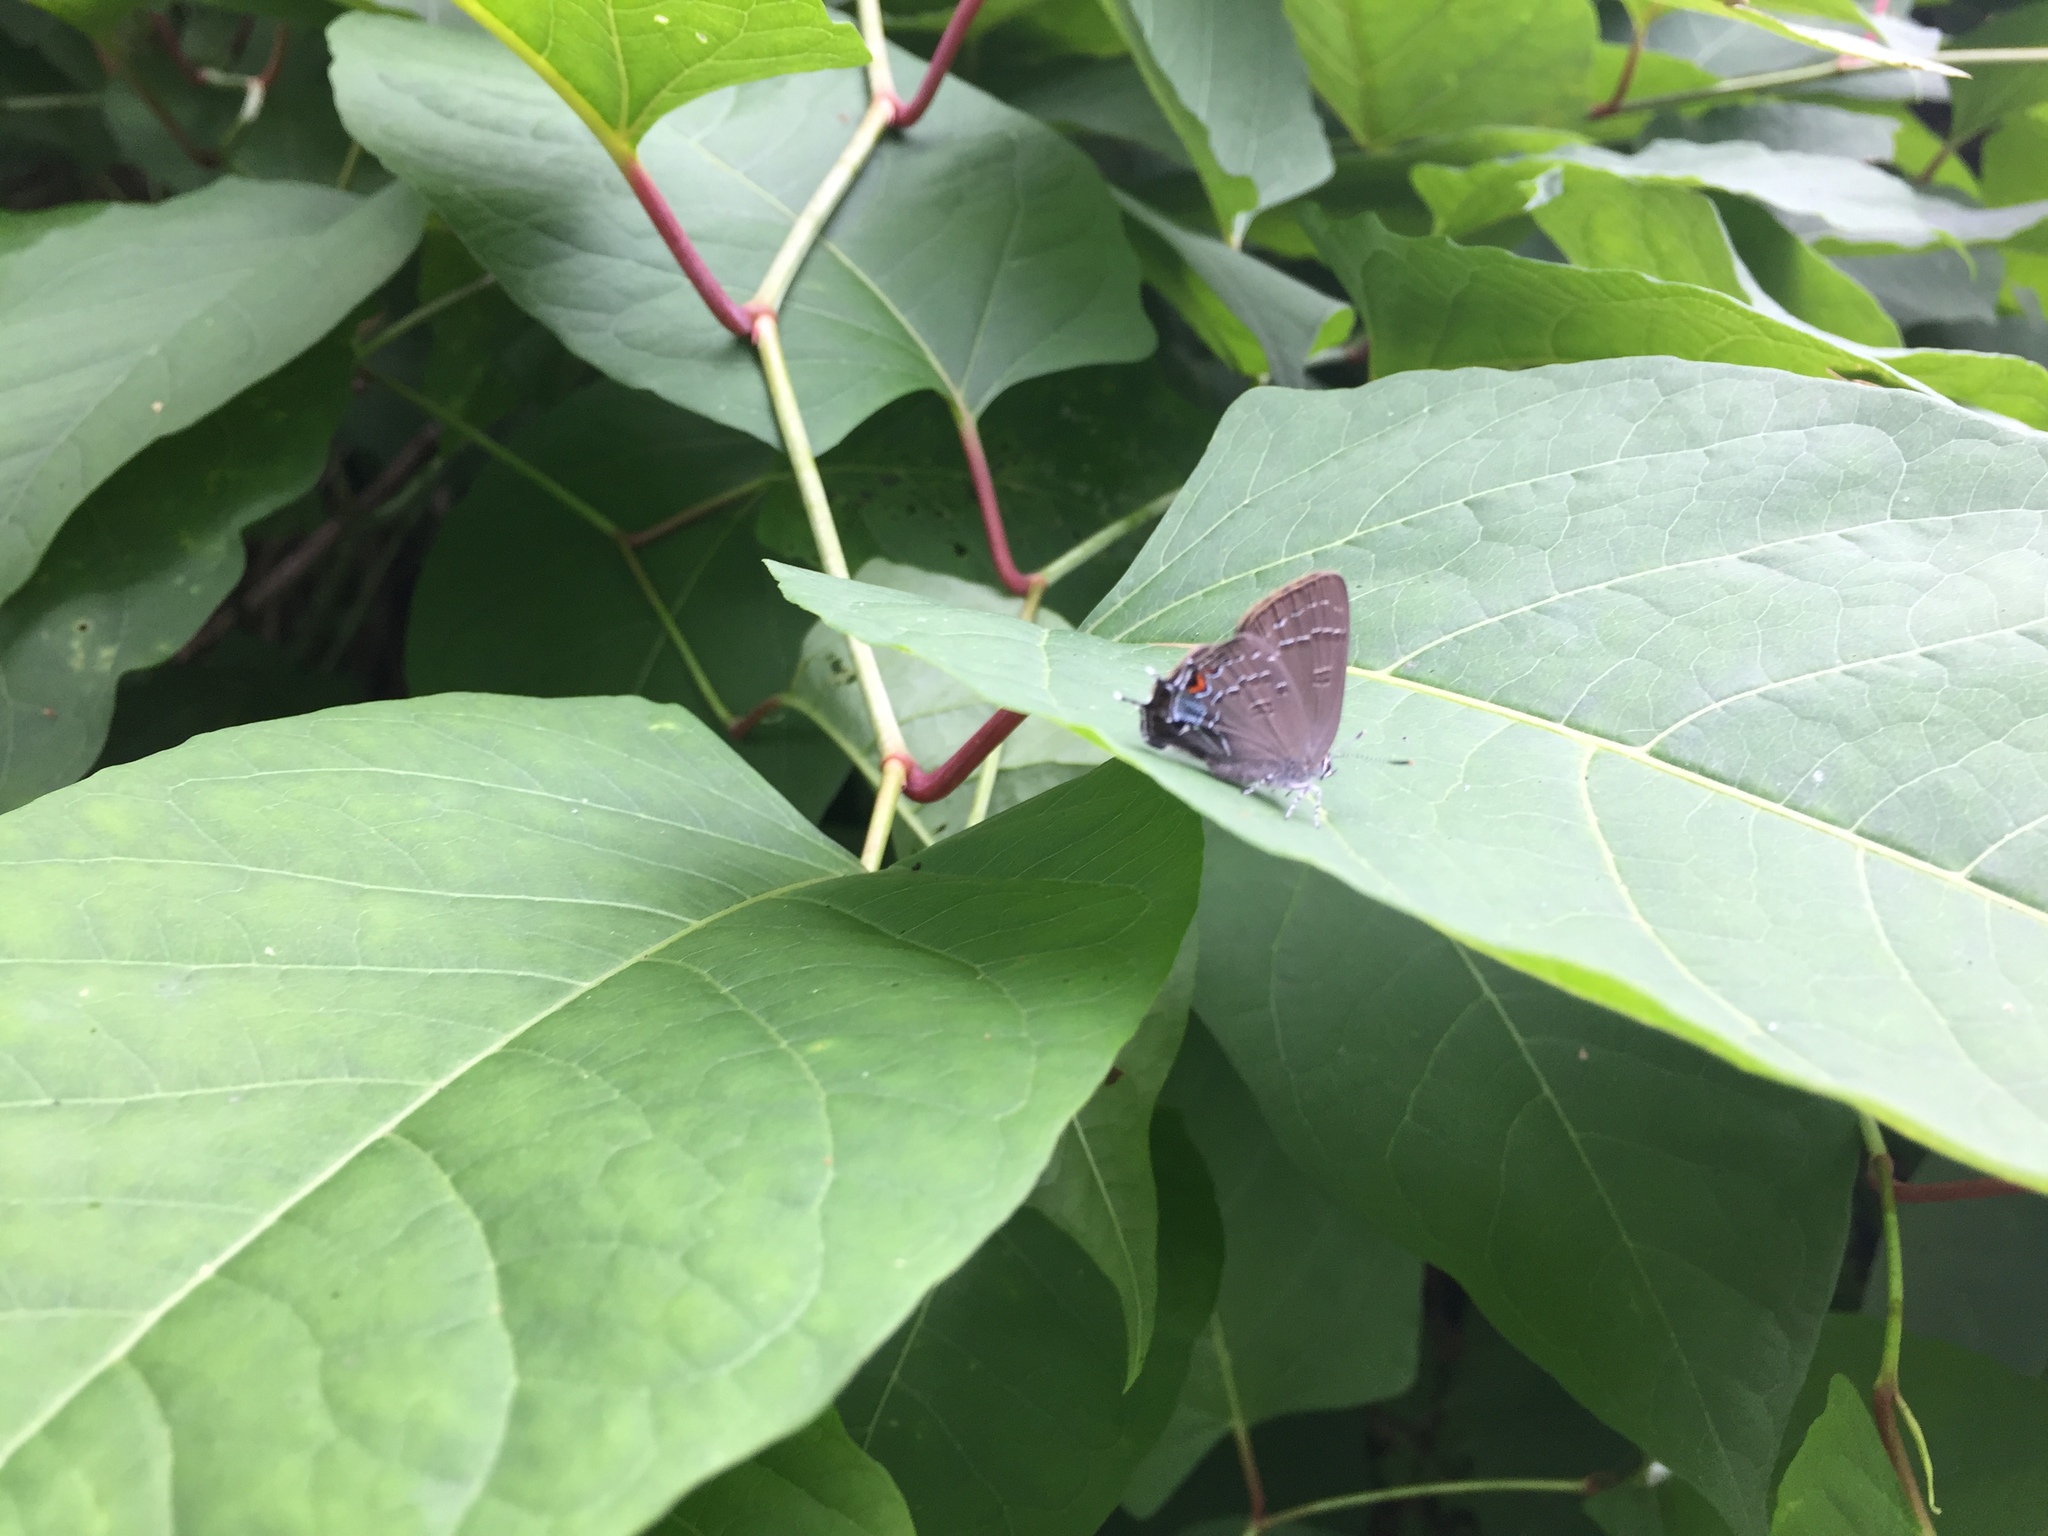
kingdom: Animalia
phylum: Arthropoda
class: Insecta
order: Lepidoptera
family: Lycaenidae
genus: Strymon
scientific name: Strymon melinus
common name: Gray hairstreak
